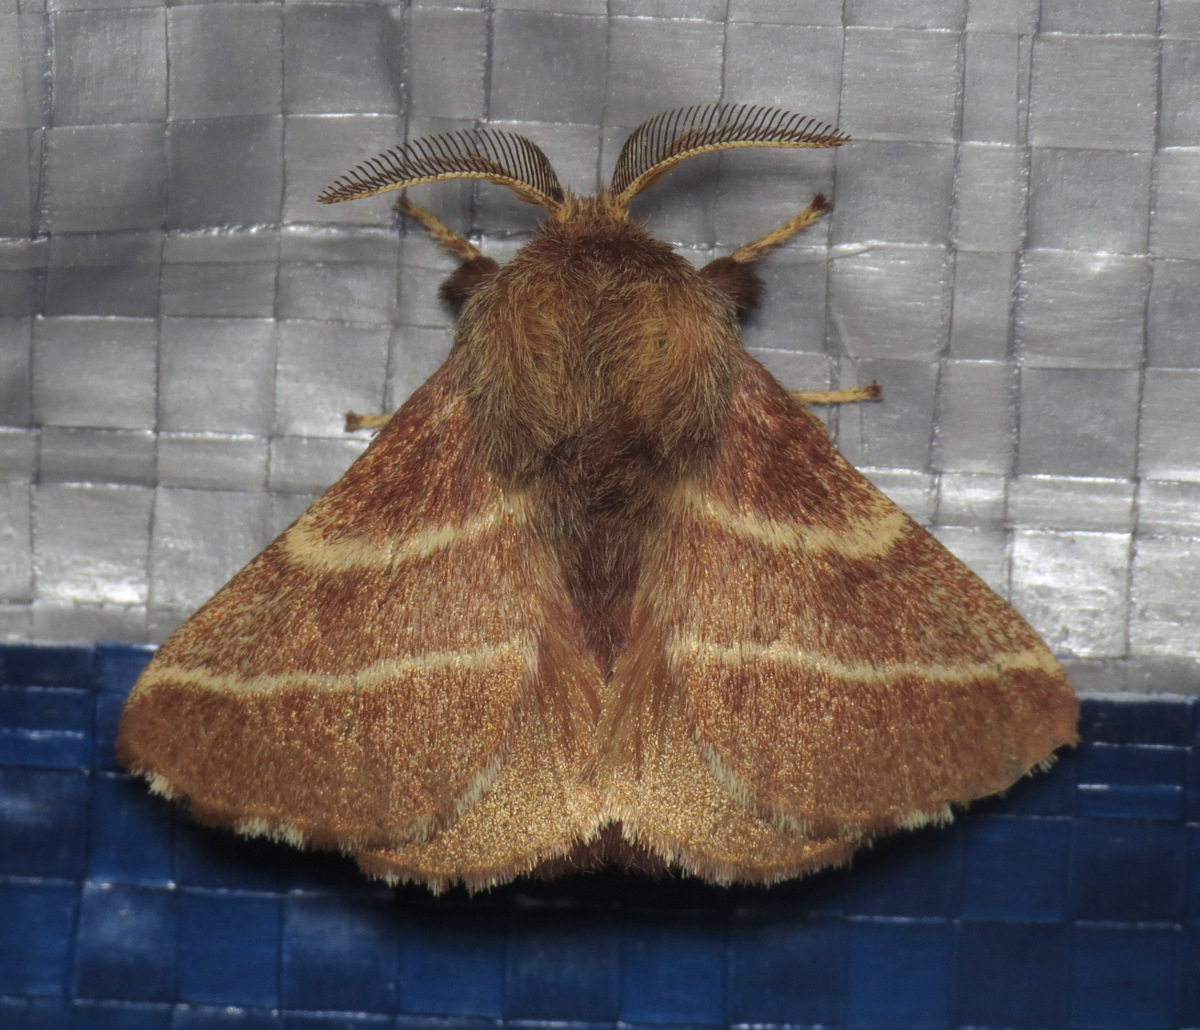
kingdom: Animalia
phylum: Arthropoda
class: Insecta
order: Lepidoptera
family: Lasiocampidae
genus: Malacosoma
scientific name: Malacosoma americana
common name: Eastern tent caterpillar moth
